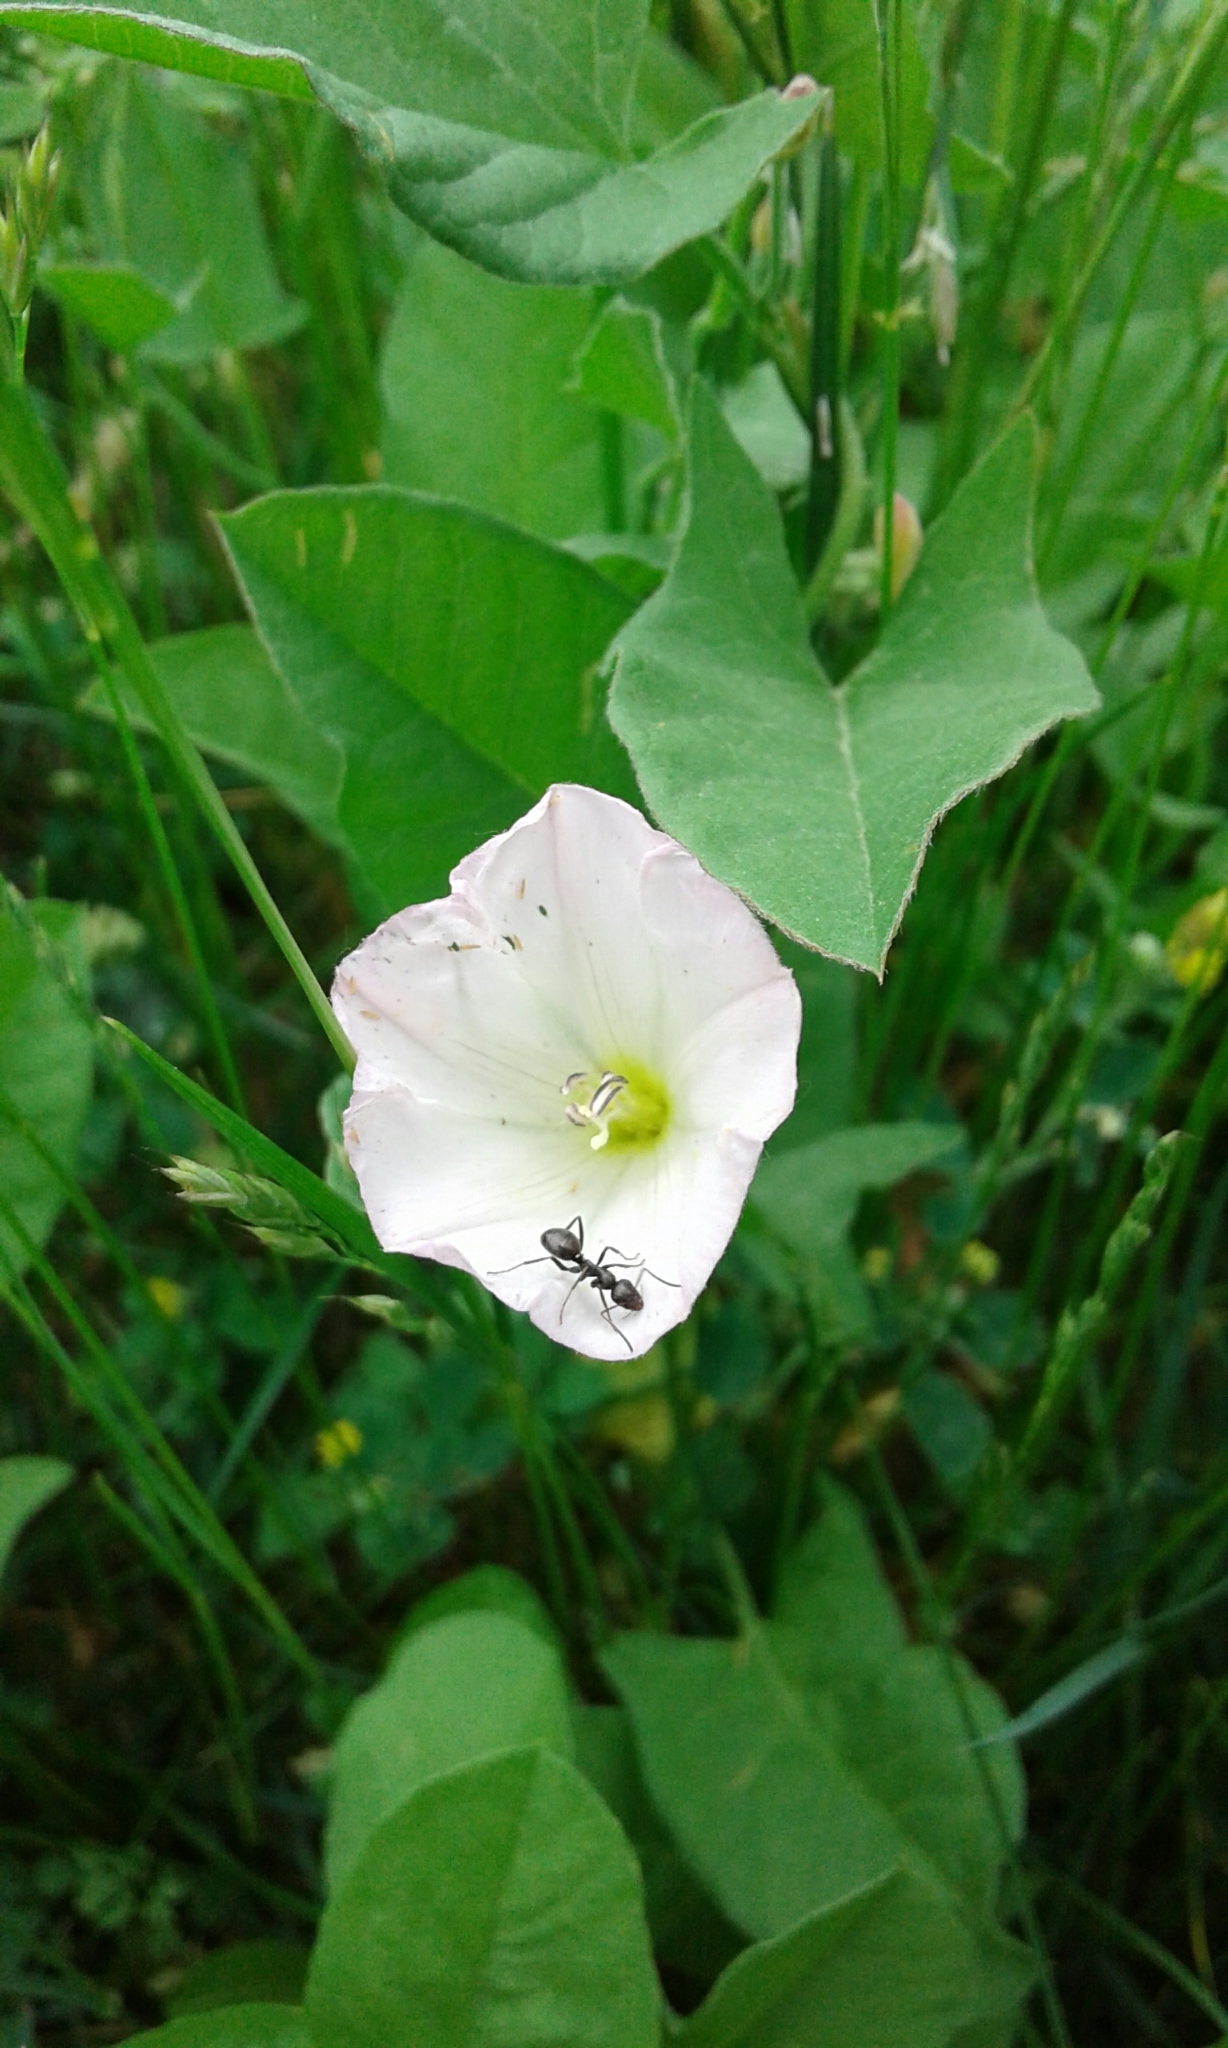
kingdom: Plantae
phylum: Tracheophyta
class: Magnoliopsida
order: Solanales
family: Convolvulaceae
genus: Convolvulus
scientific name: Convolvulus arvensis
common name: Field bindweed
